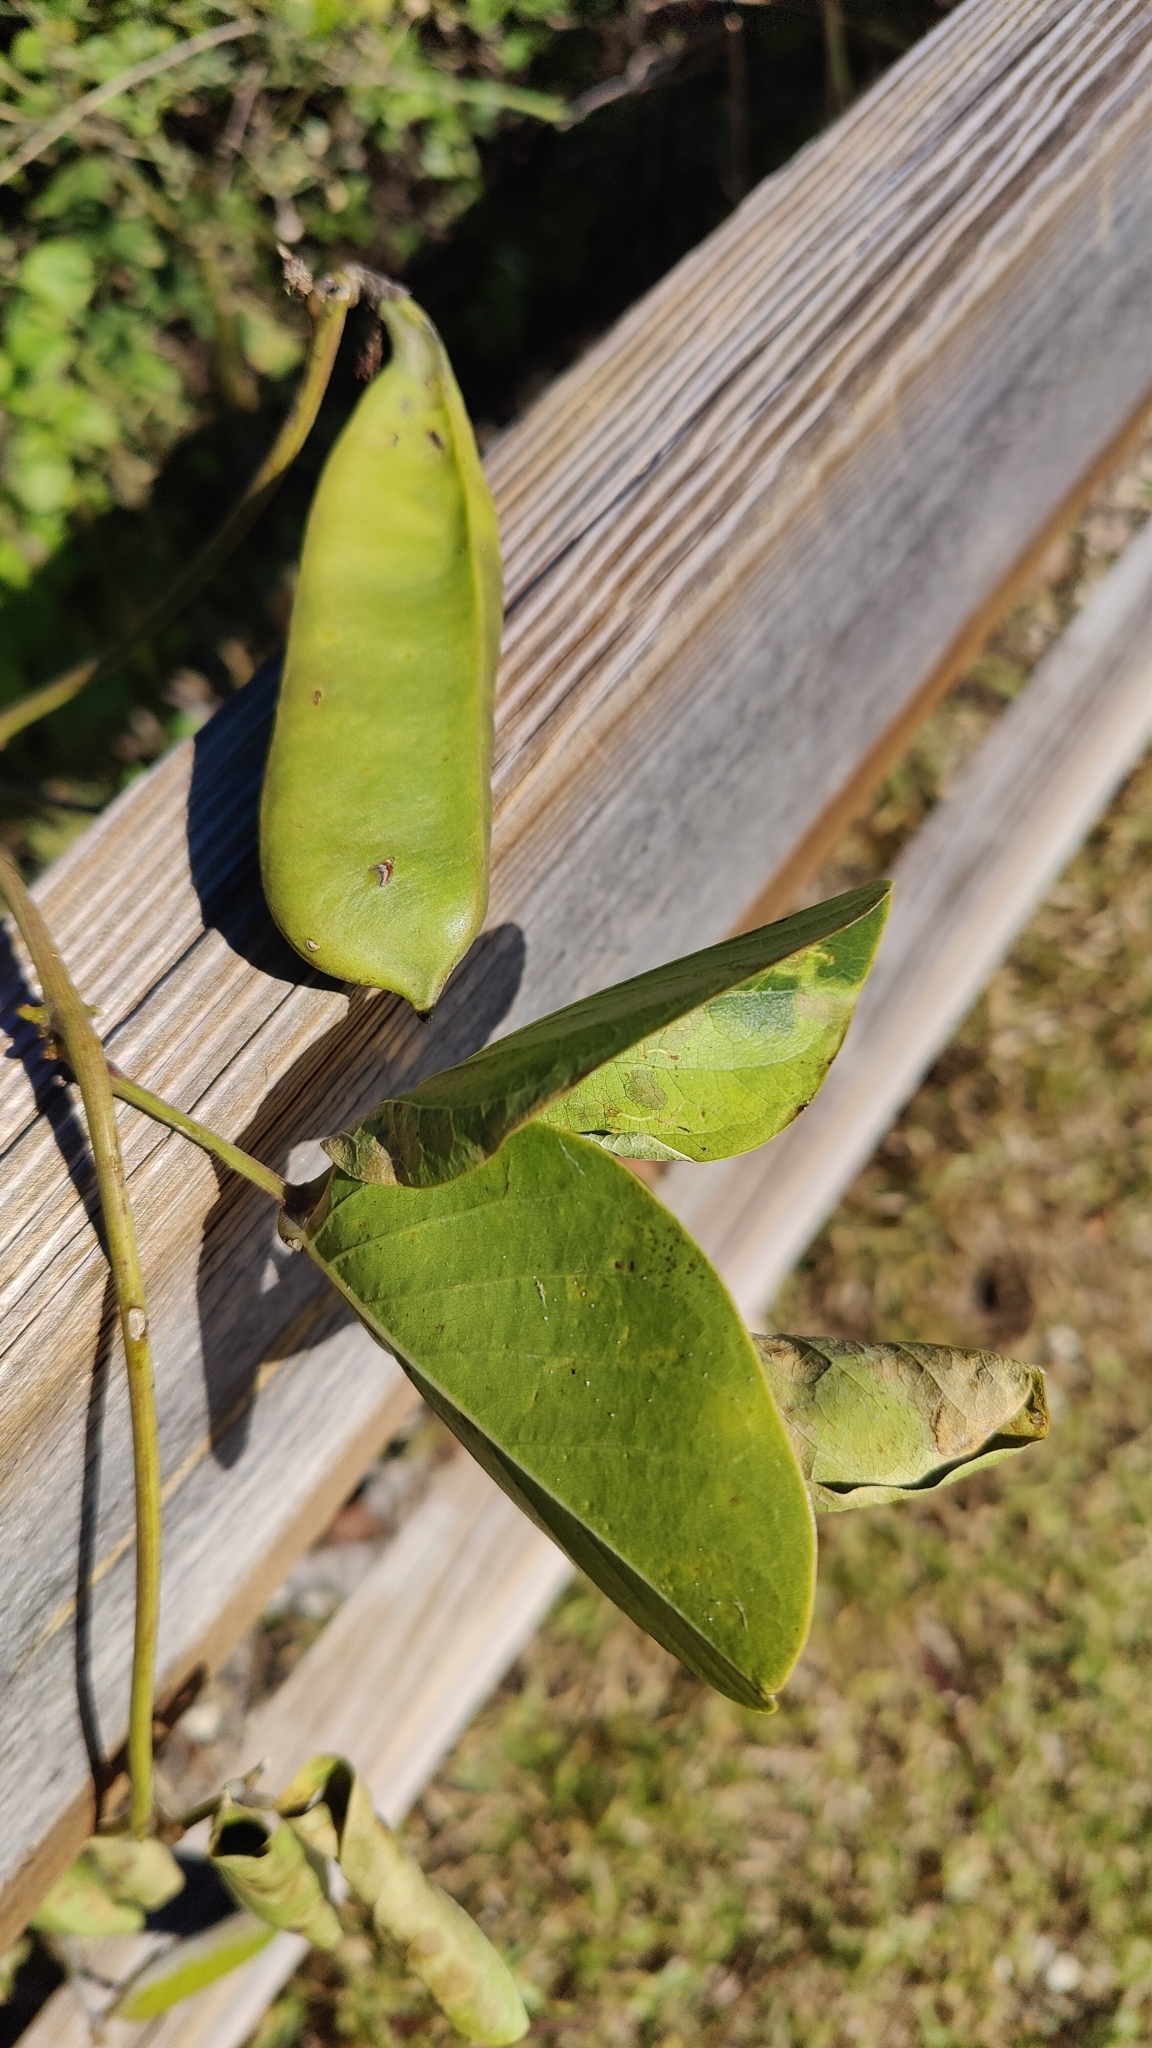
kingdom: Plantae
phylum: Tracheophyta
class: Magnoliopsida
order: Fabales
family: Fabaceae
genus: Canavalia
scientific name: Canavalia rosea
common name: Beach-bean
